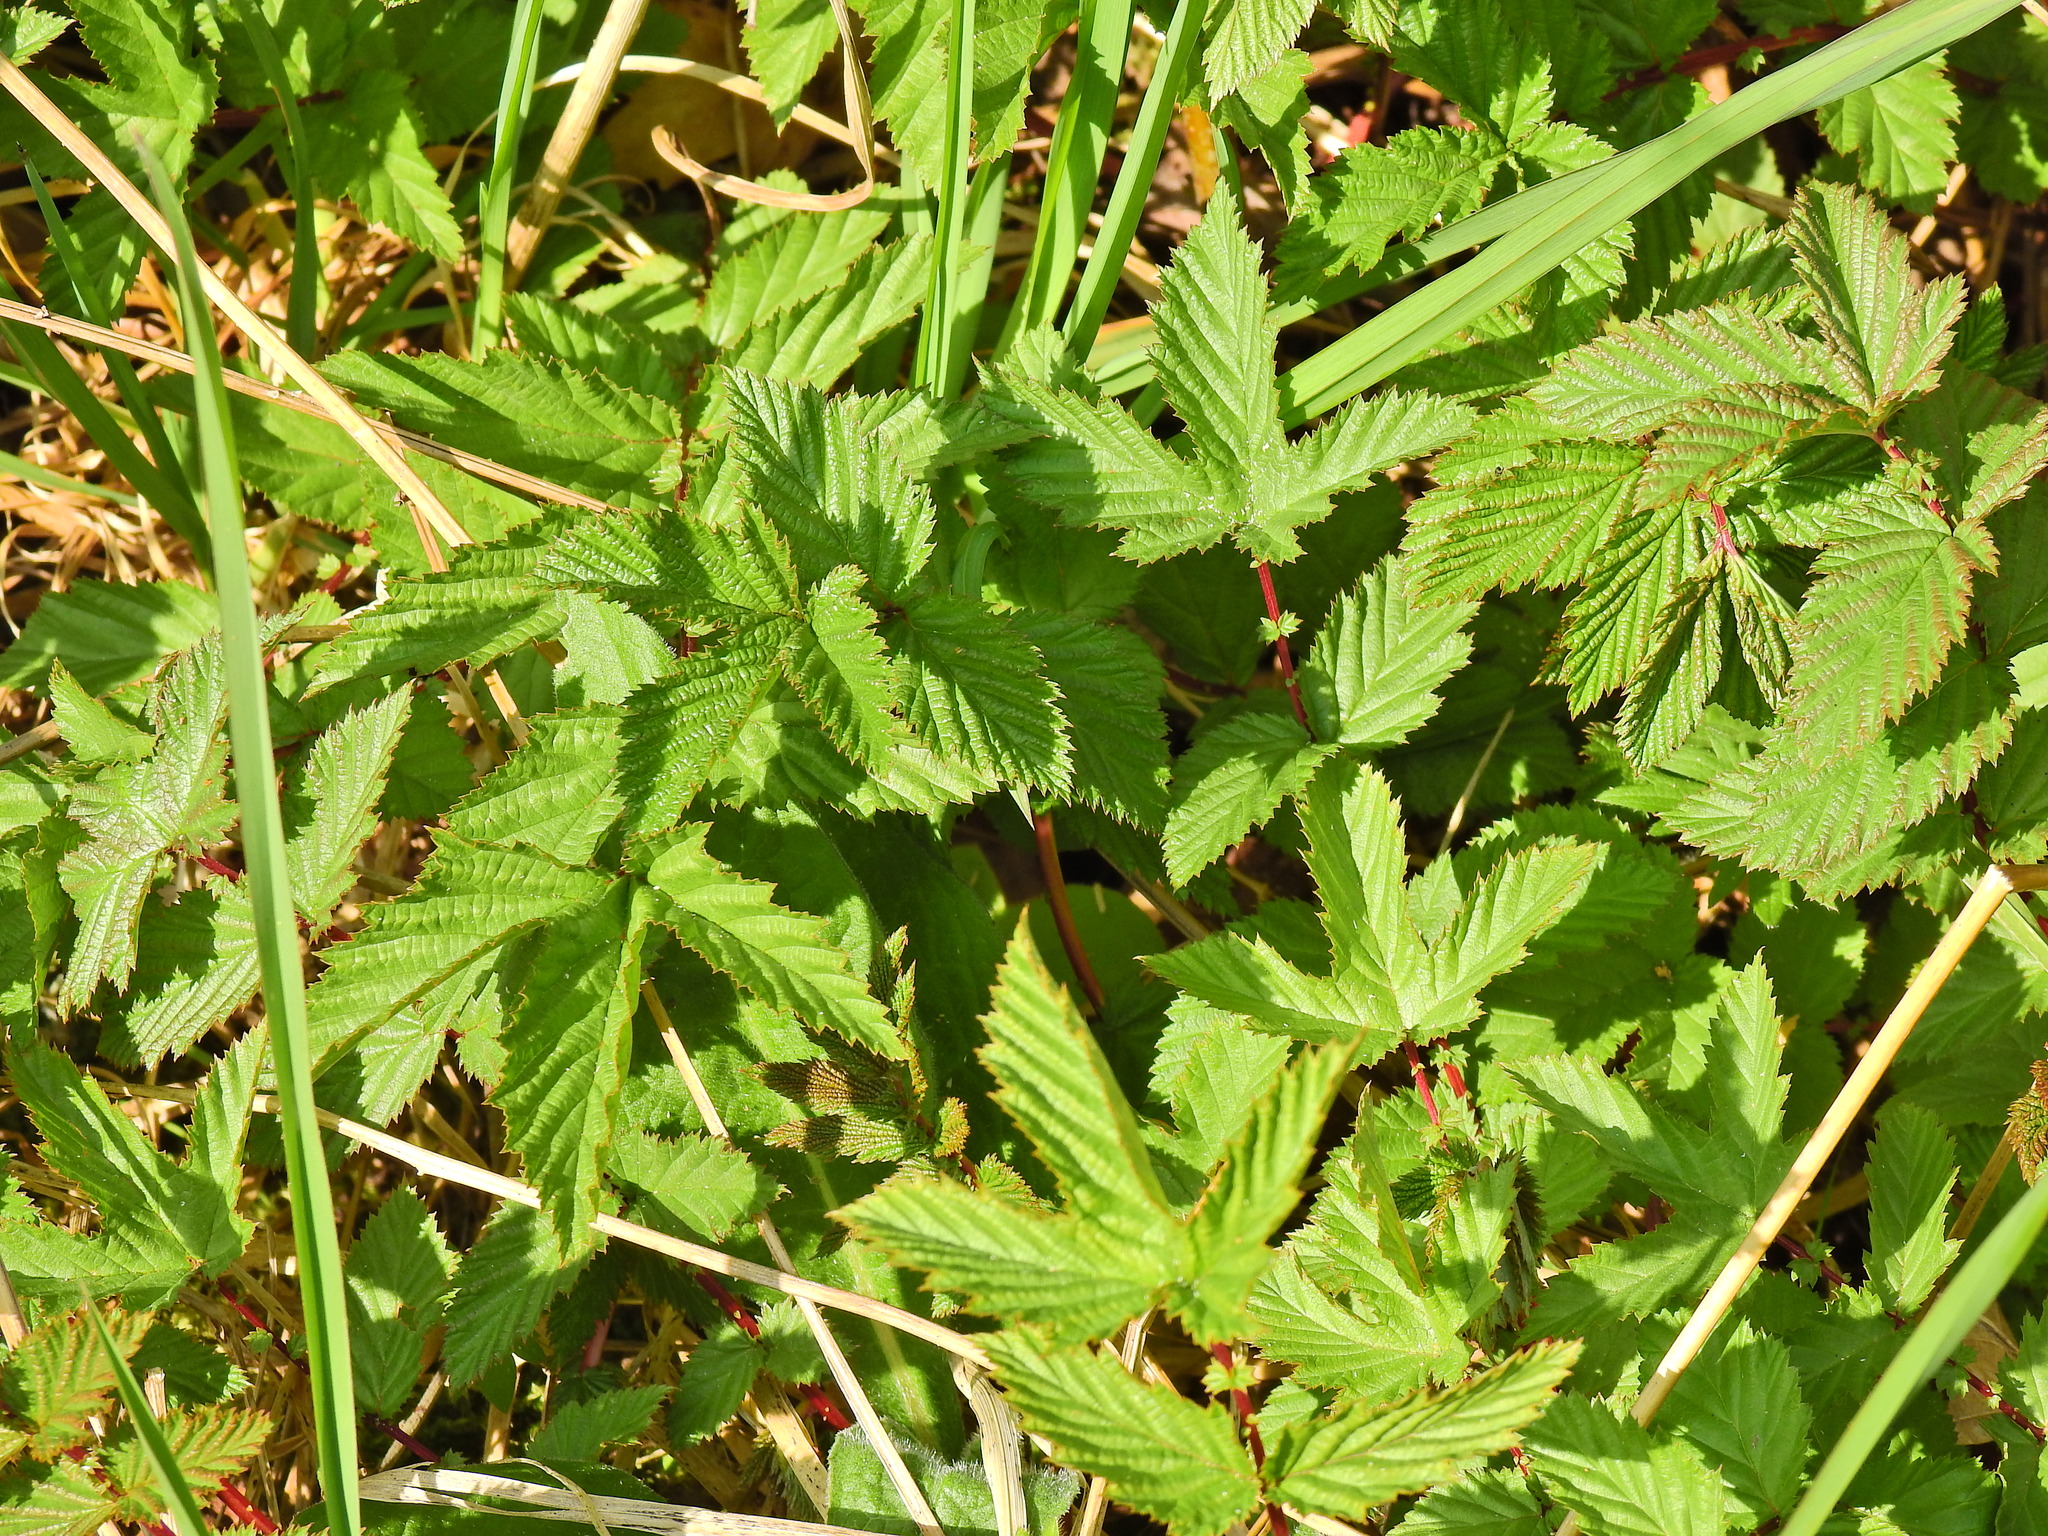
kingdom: Plantae
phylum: Tracheophyta
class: Magnoliopsida
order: Rosales
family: Rosaceae
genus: Filipendula
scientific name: Filipendula ulmaria
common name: Meadowsweet
